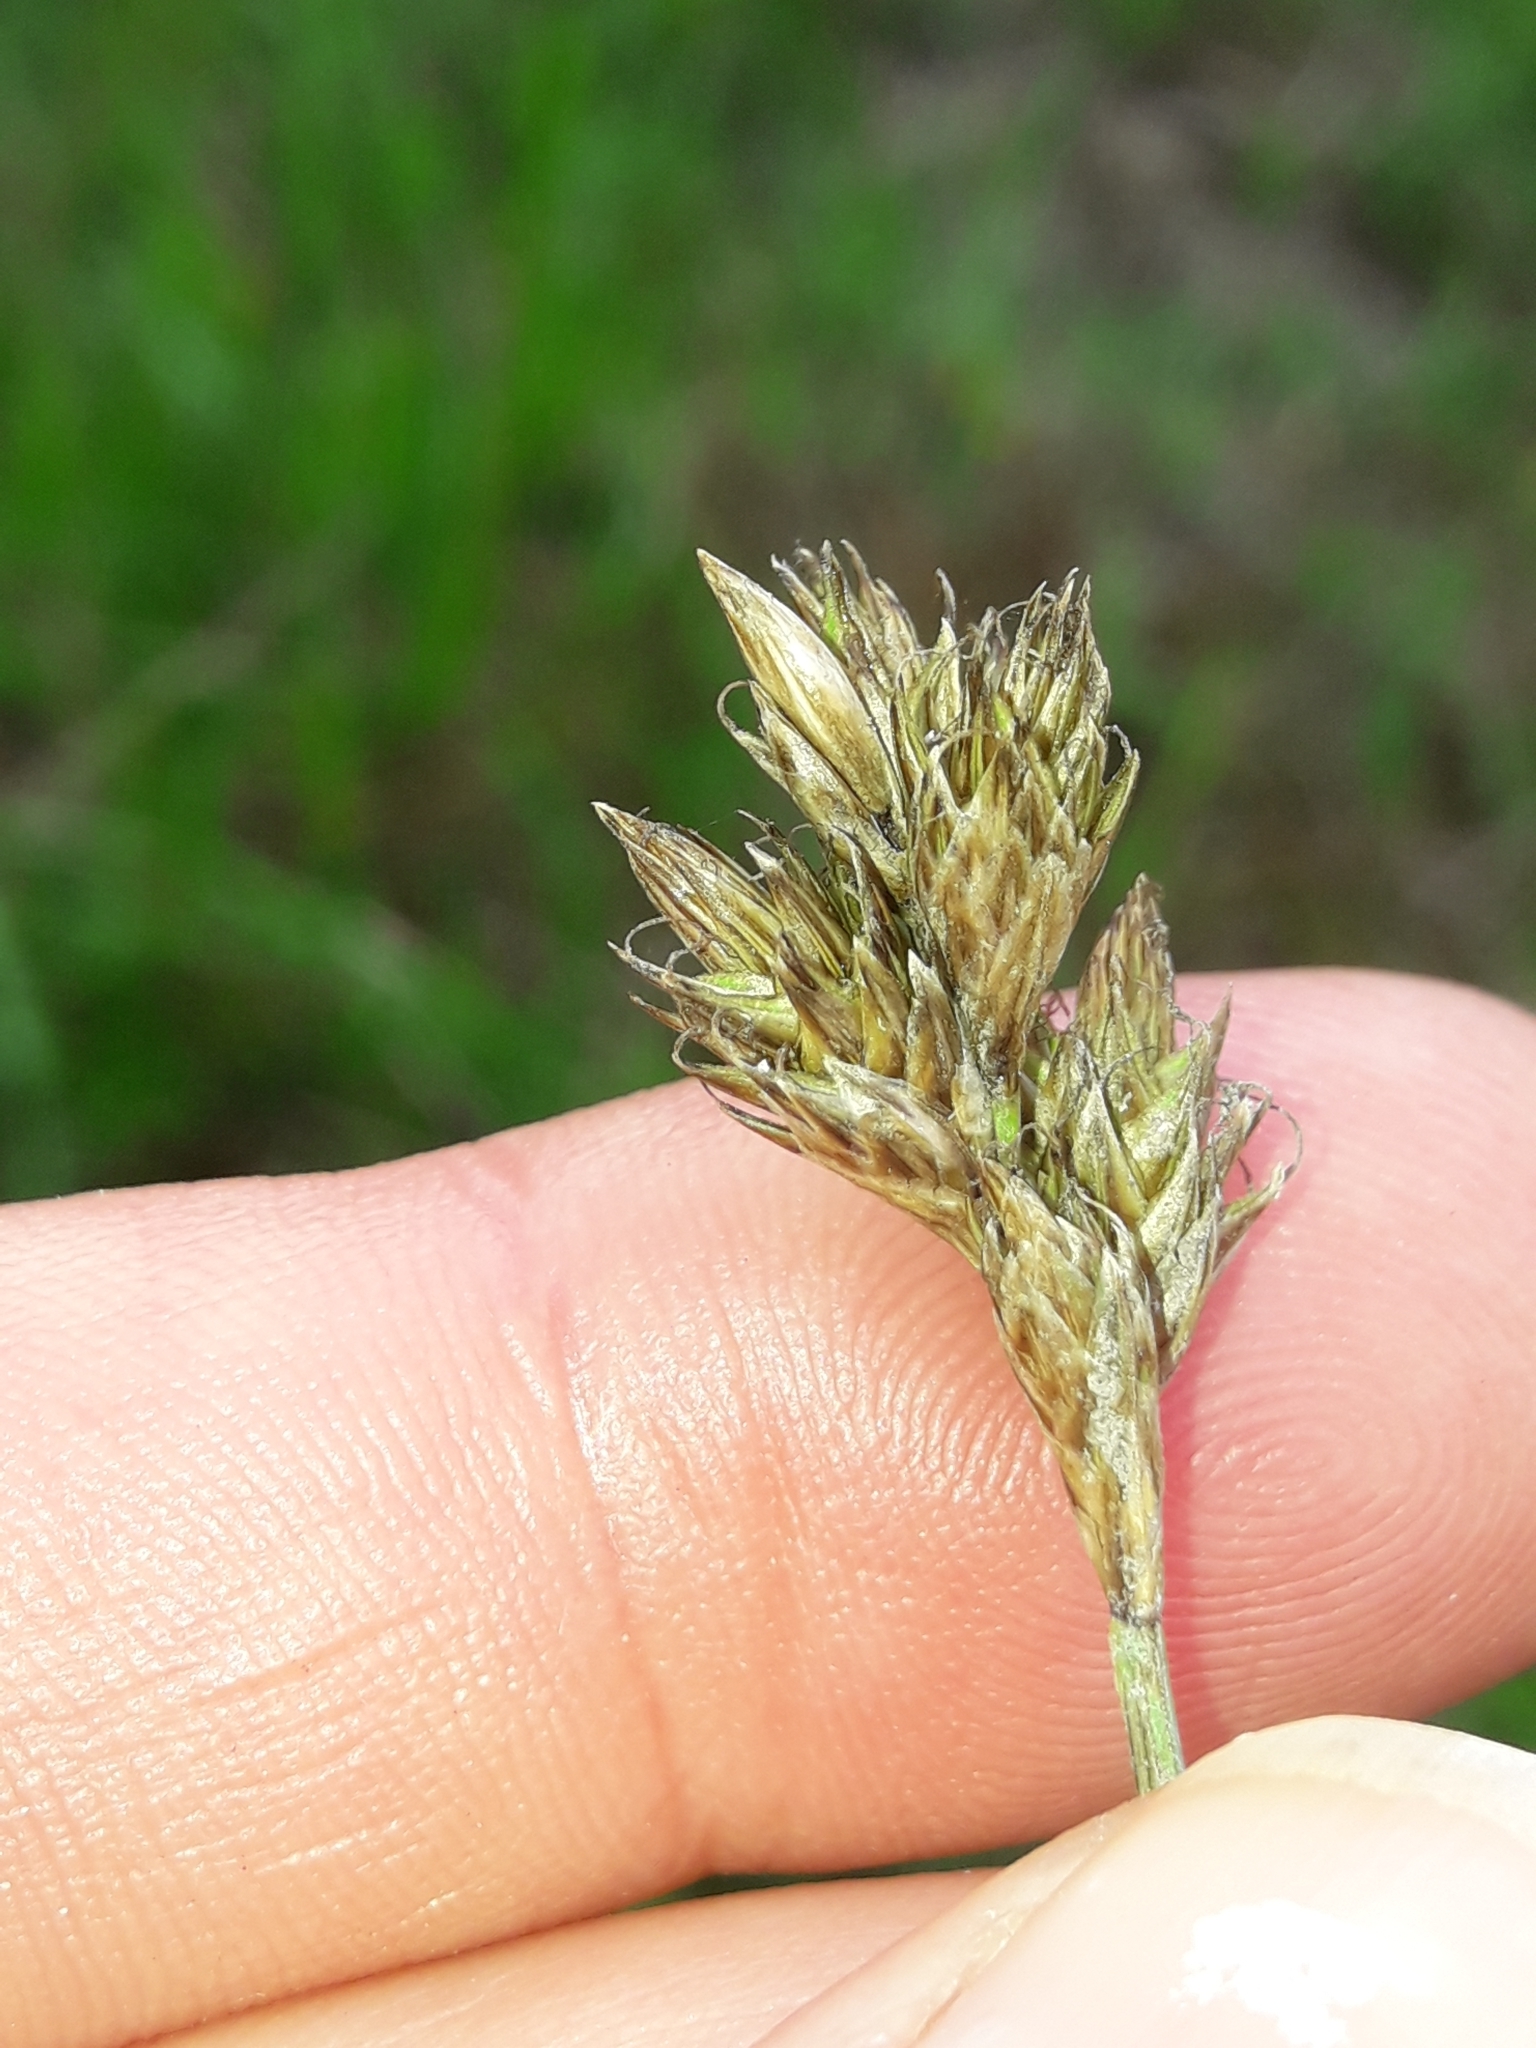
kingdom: Plantae
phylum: Tracheophyta
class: Liliopsida
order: Poales
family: Cyperaceae
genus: Carex
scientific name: Carex leporina
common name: Oval sedge
